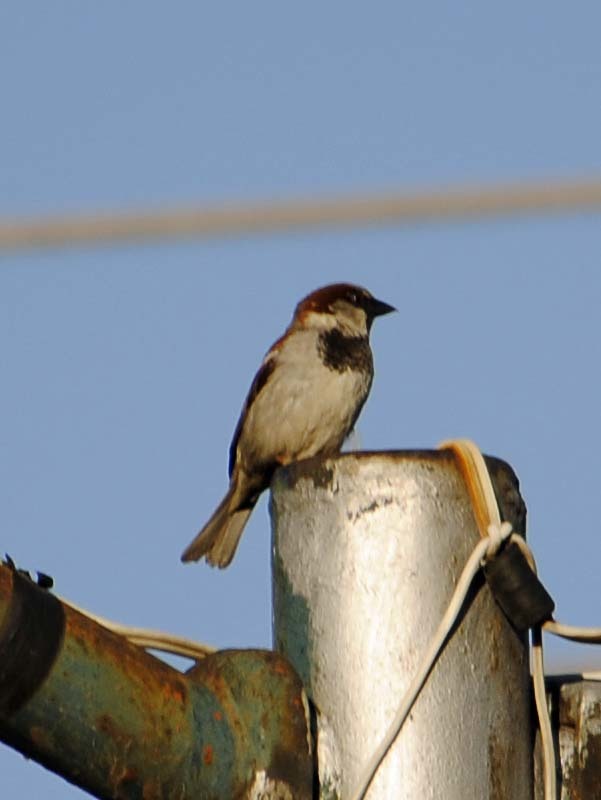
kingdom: Animalia
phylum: Chordata
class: Aves
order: Passeriformes
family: Passeridae
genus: Passer
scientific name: Passer domesticus
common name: House sparrow
